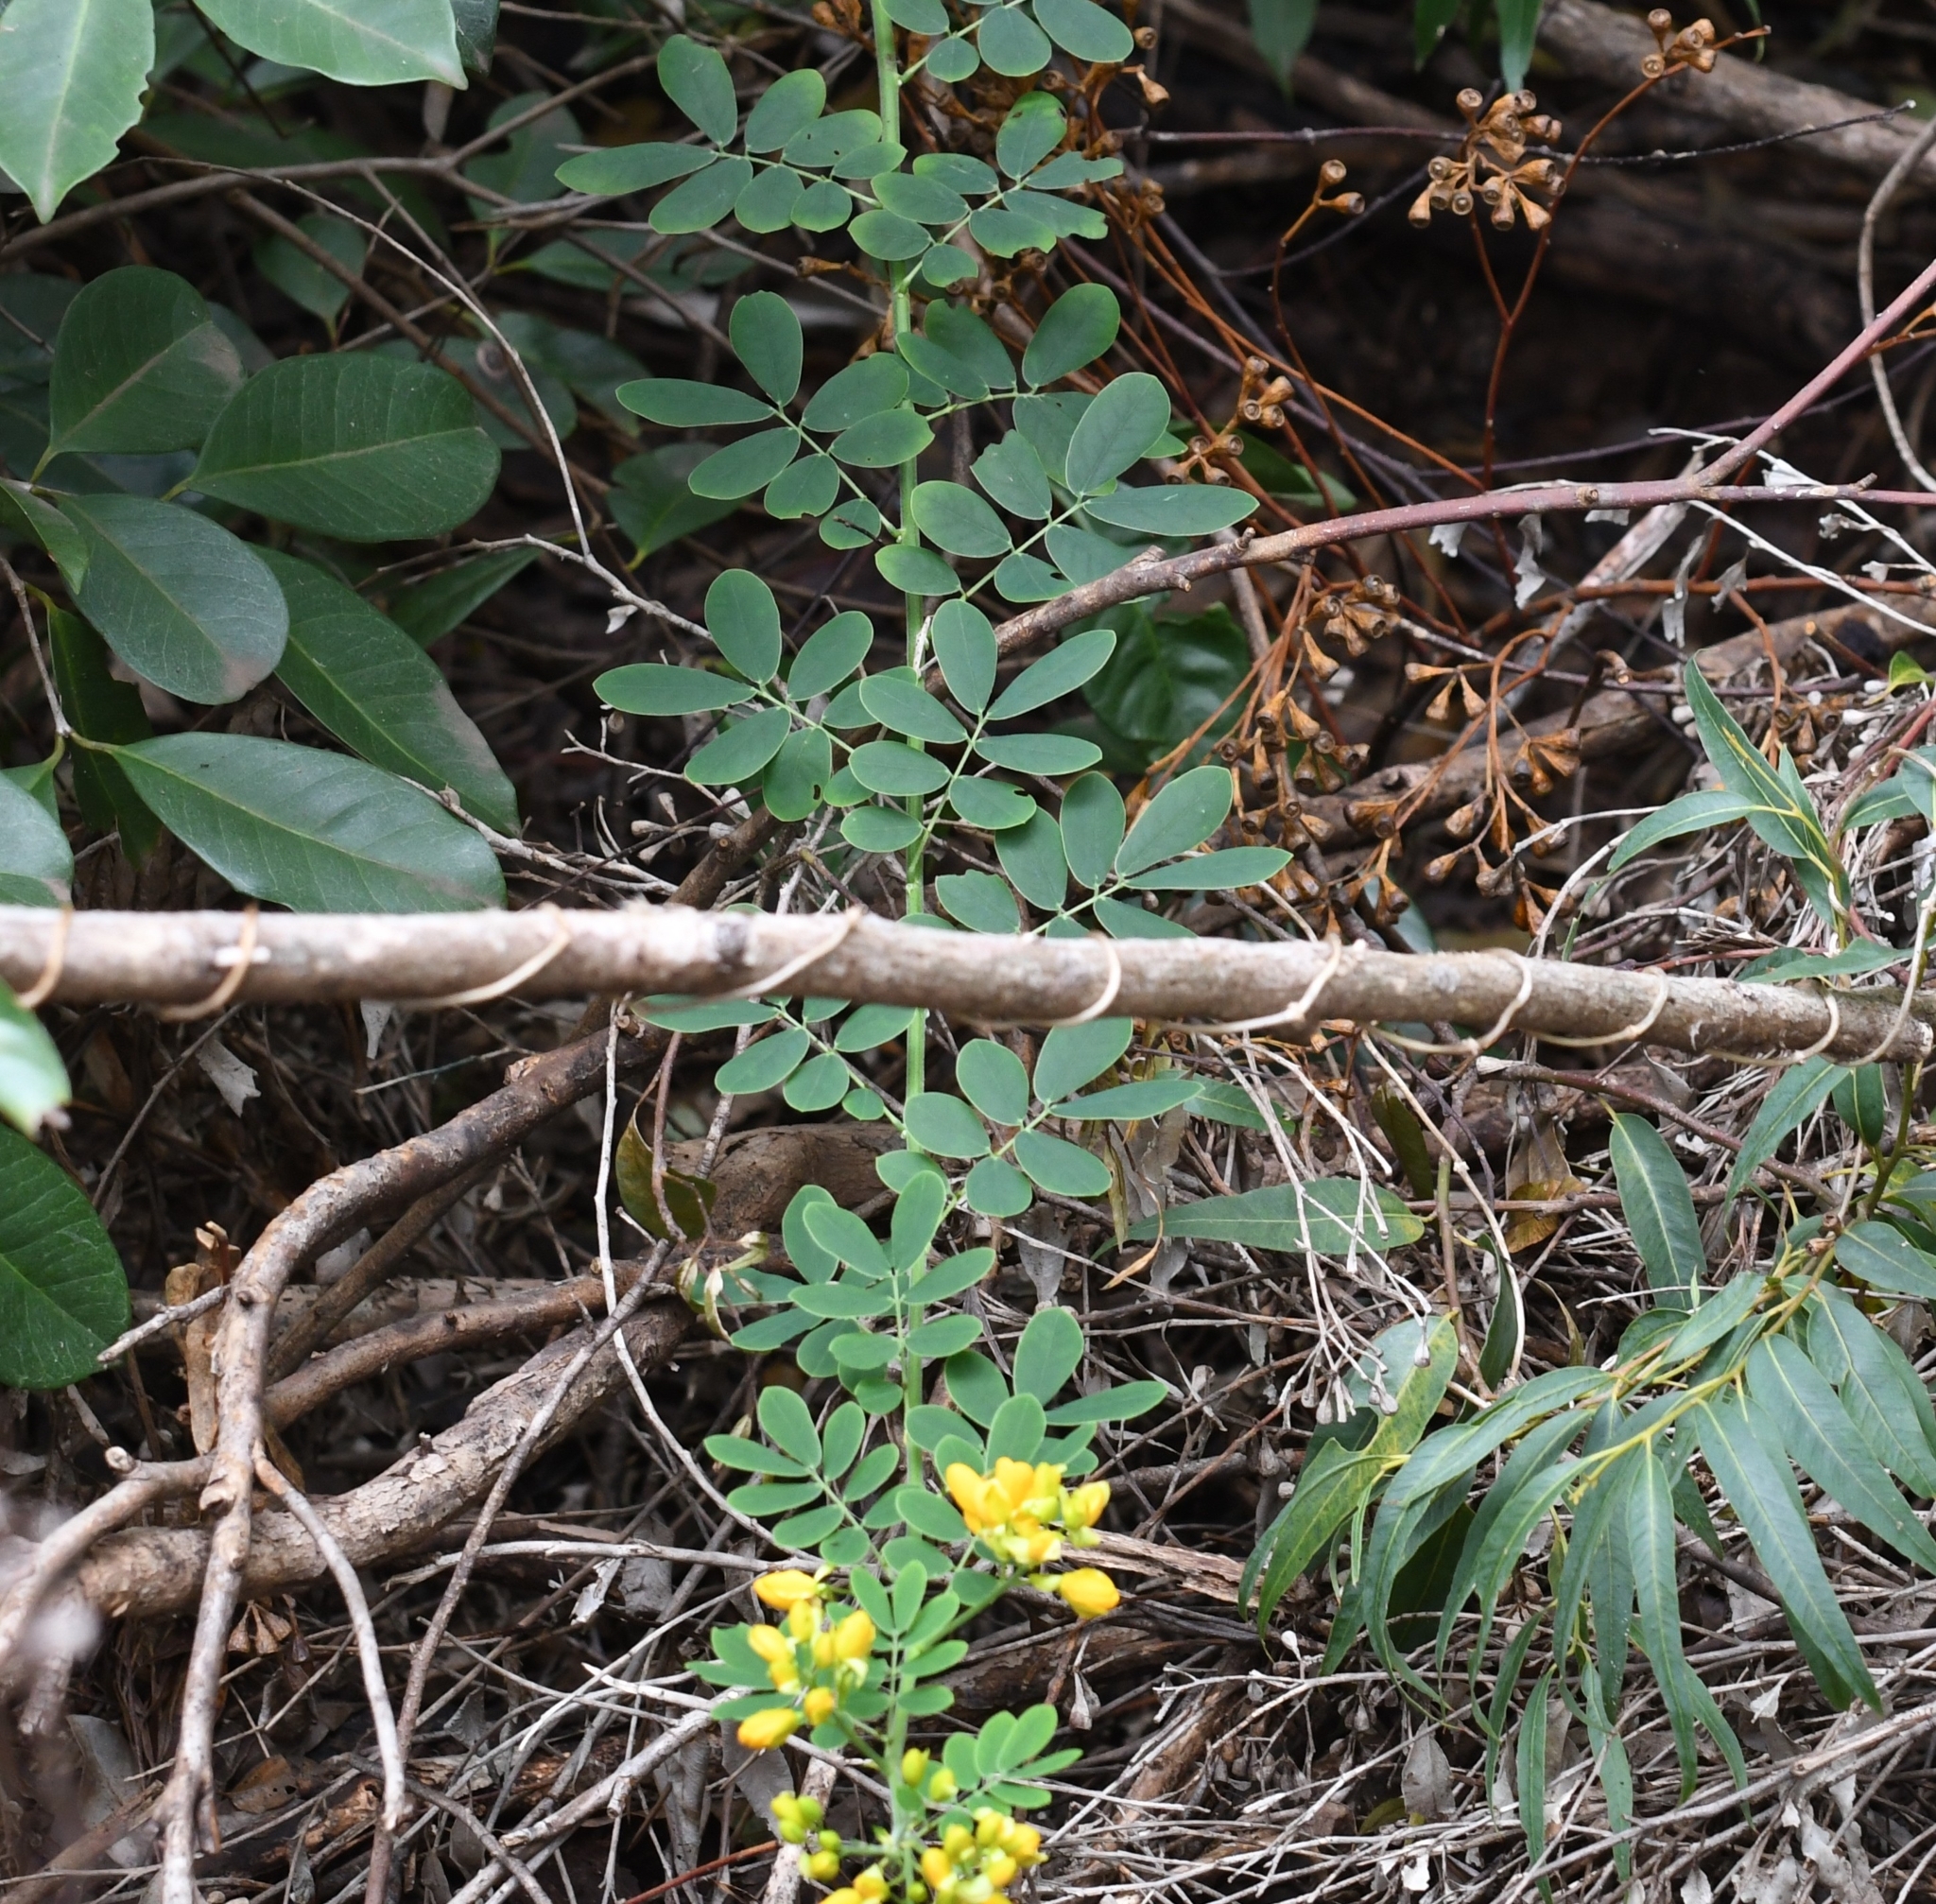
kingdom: Plantae
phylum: Tracheophyta
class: Magnoliopsida
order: Fabales
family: Fabaceae
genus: Senna
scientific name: Senna pendula
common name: Easter cassia
